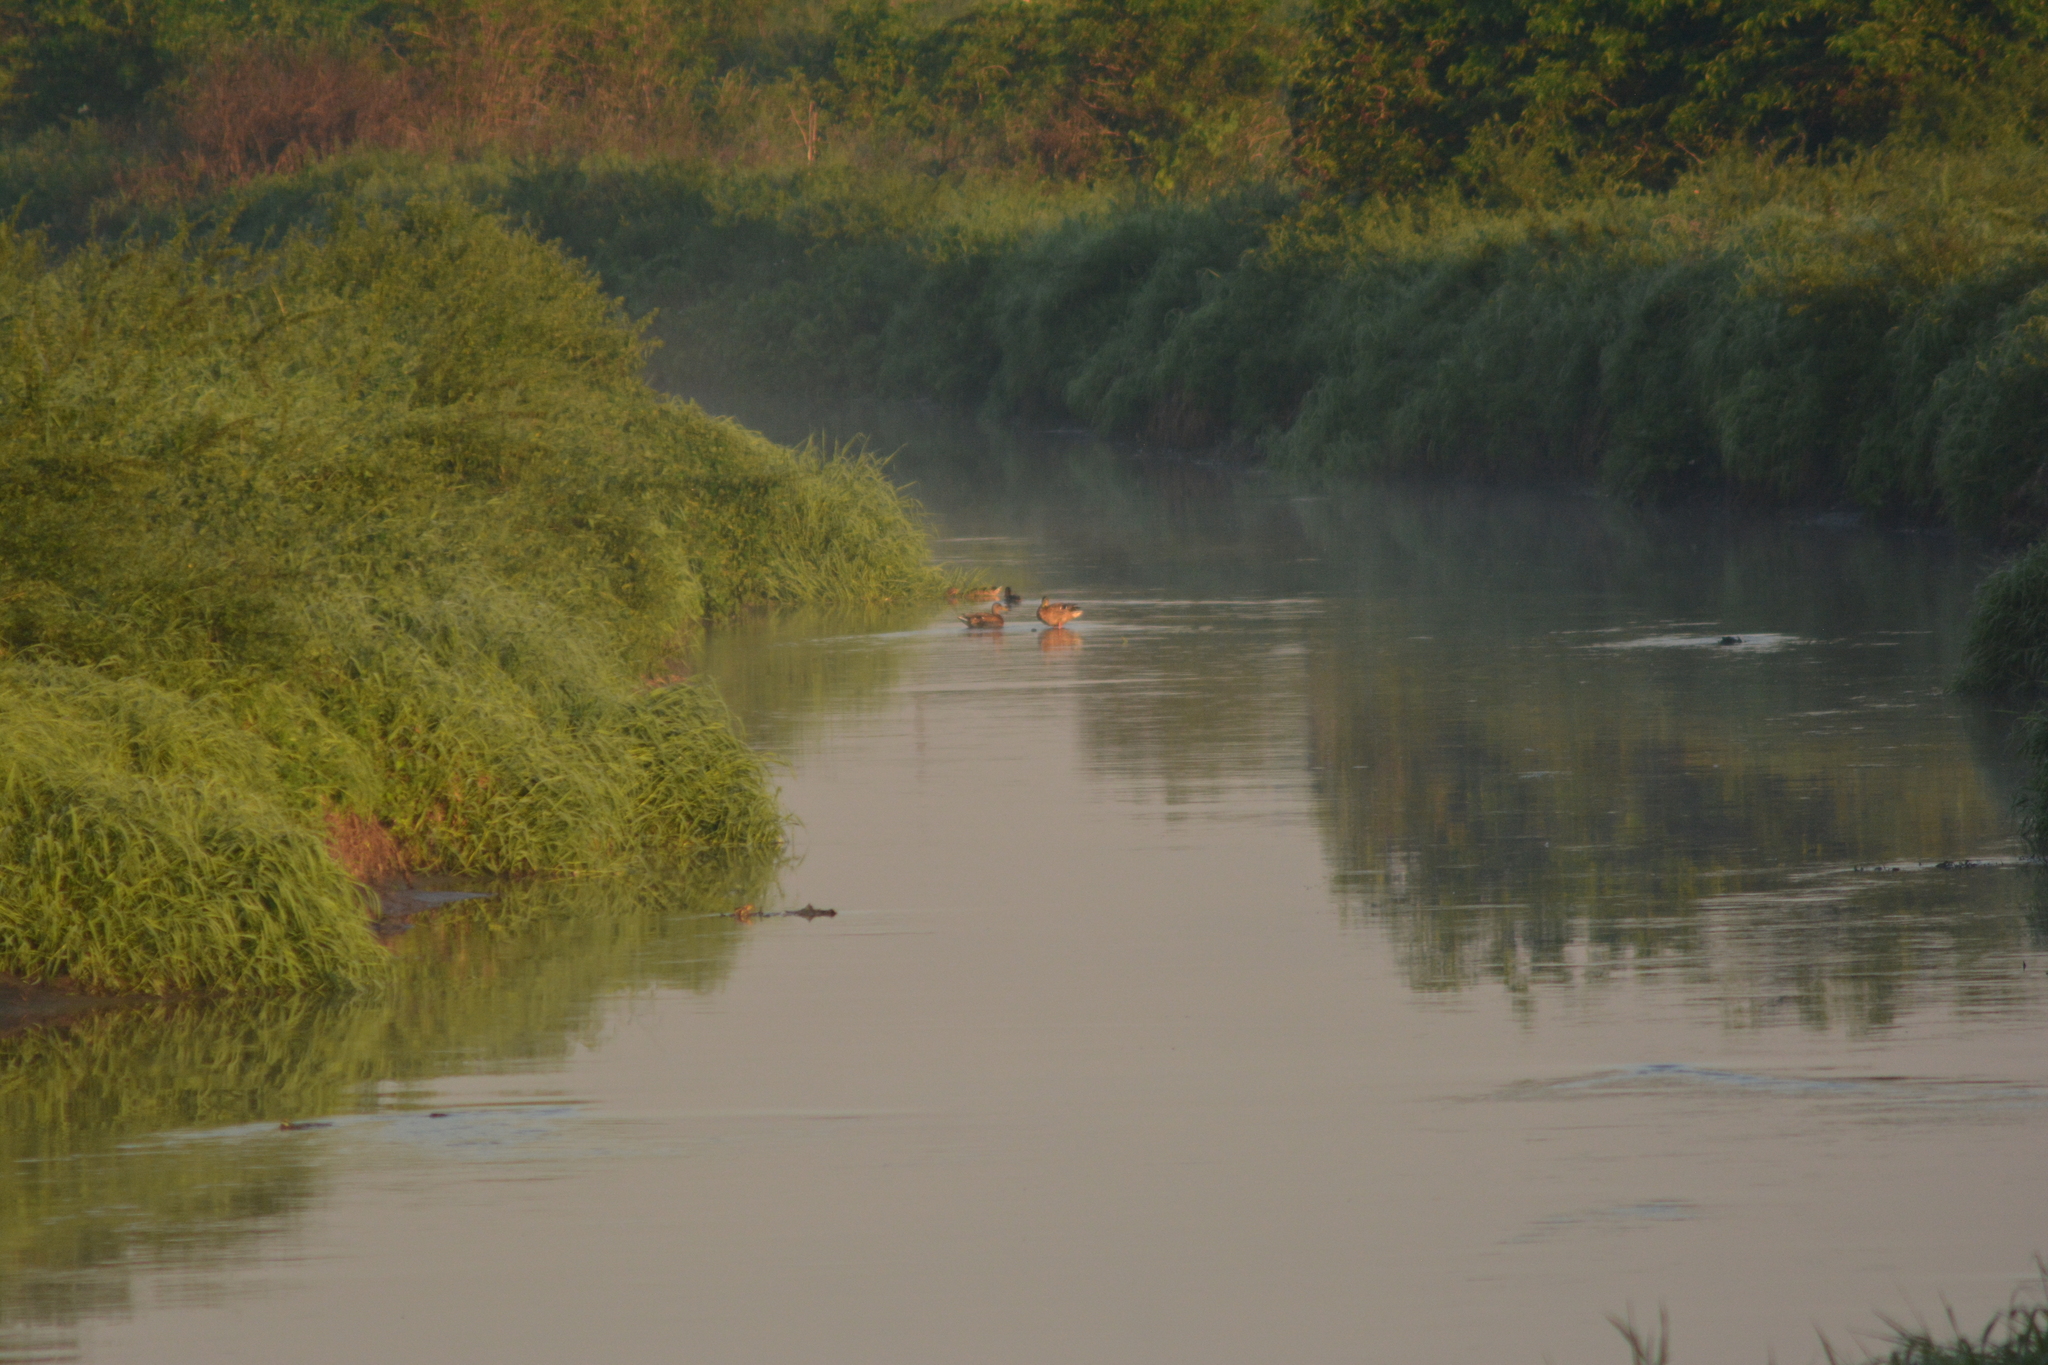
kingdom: Animalia
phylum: Chordata
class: Aves
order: Anseriformes
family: Anatidae
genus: Anas
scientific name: Anas platyrhynchos
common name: Mallard
